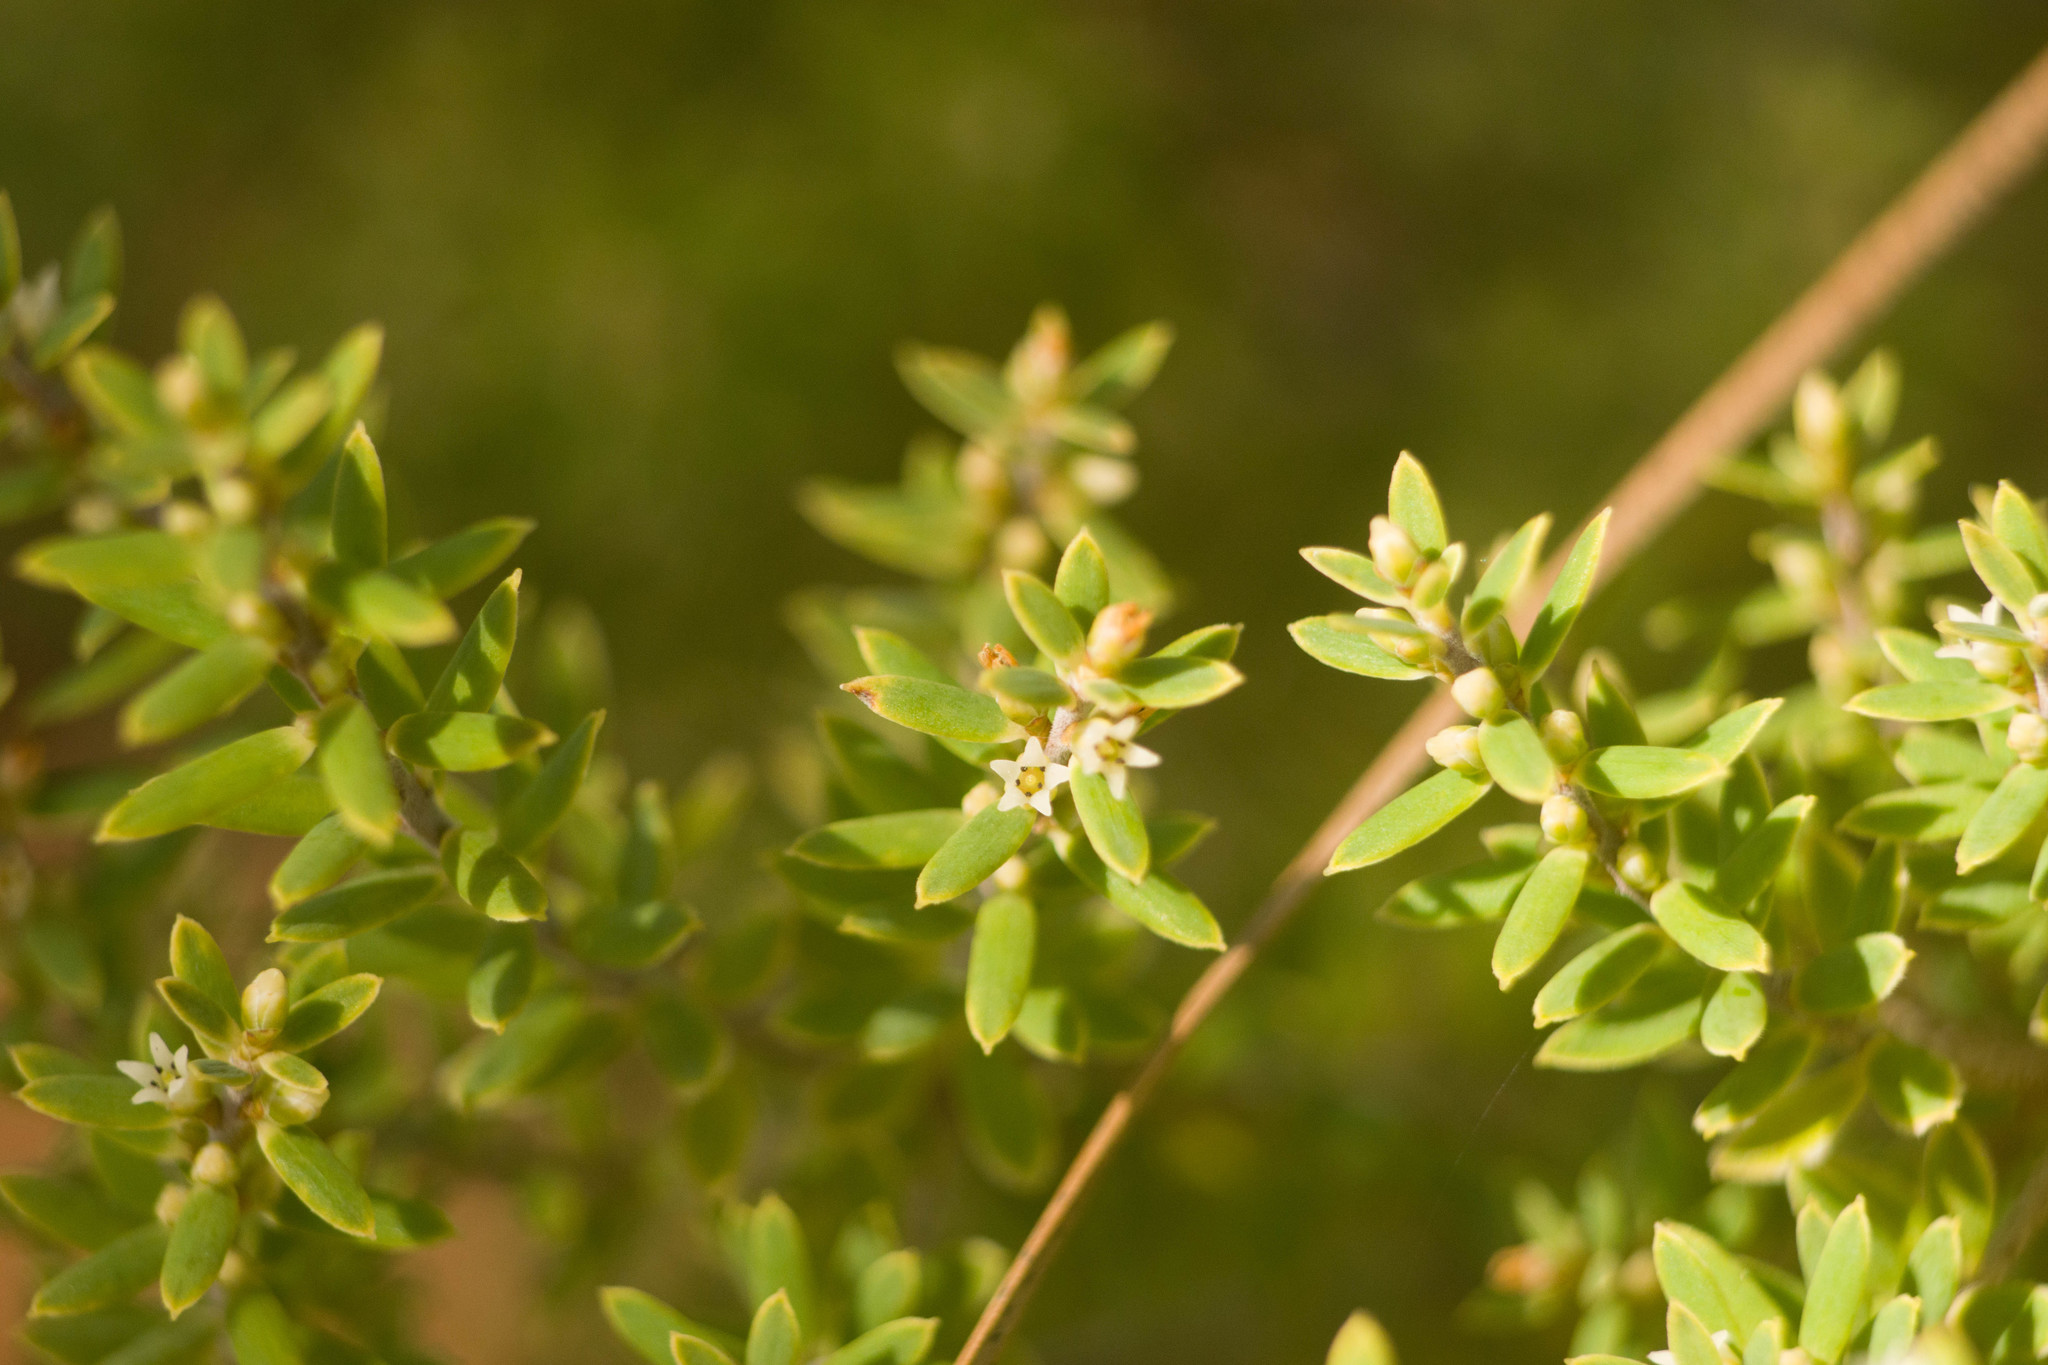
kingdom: Plantae
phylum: Tracheophyta
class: Magnoliopsida
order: Ericales
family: Ericaceae
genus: Leptecophylla
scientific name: Leptecophylla tameiameiae
